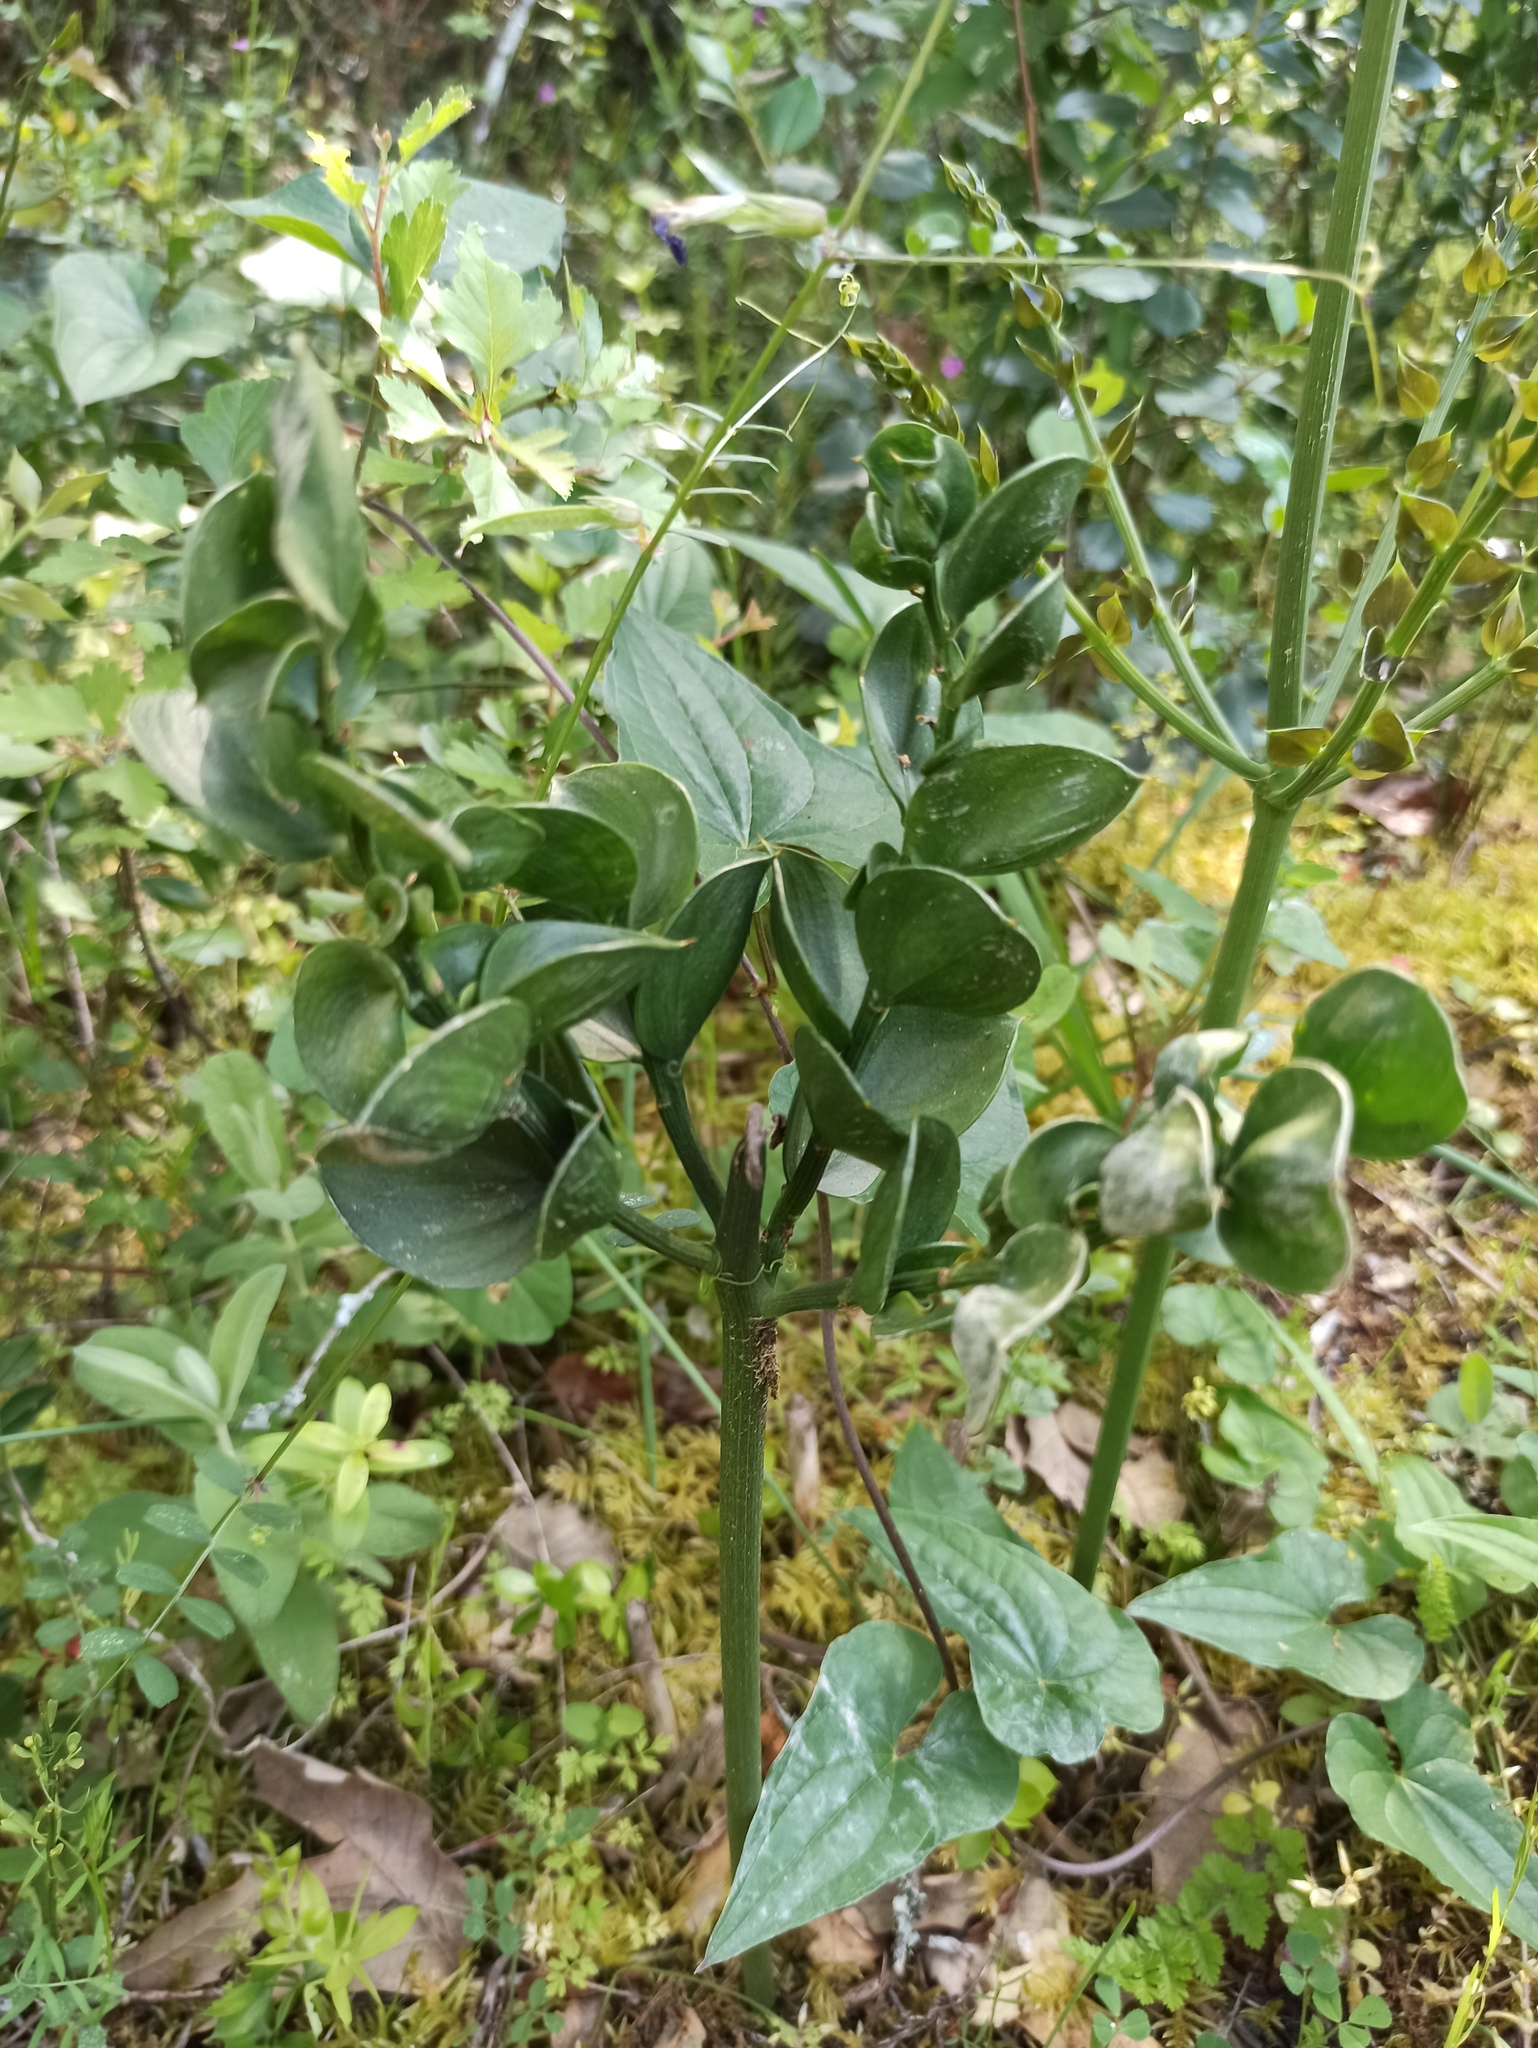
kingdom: Plantae
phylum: Tracheophyta
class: Liliopsida
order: Asparagales
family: Asparagaceae
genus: Ruscus
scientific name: Ruscus aculeatus
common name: Butcher's-broom
